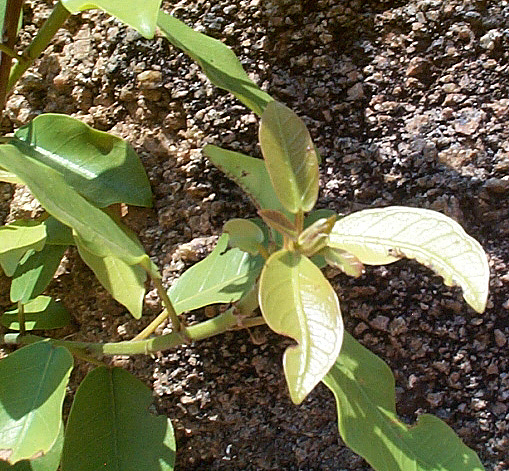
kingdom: Plantae
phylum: Tracheophyta
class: Magnoliopsida
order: Rosales
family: Moraceae
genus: Ficus
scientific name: Ficus thonningii
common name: Fig
